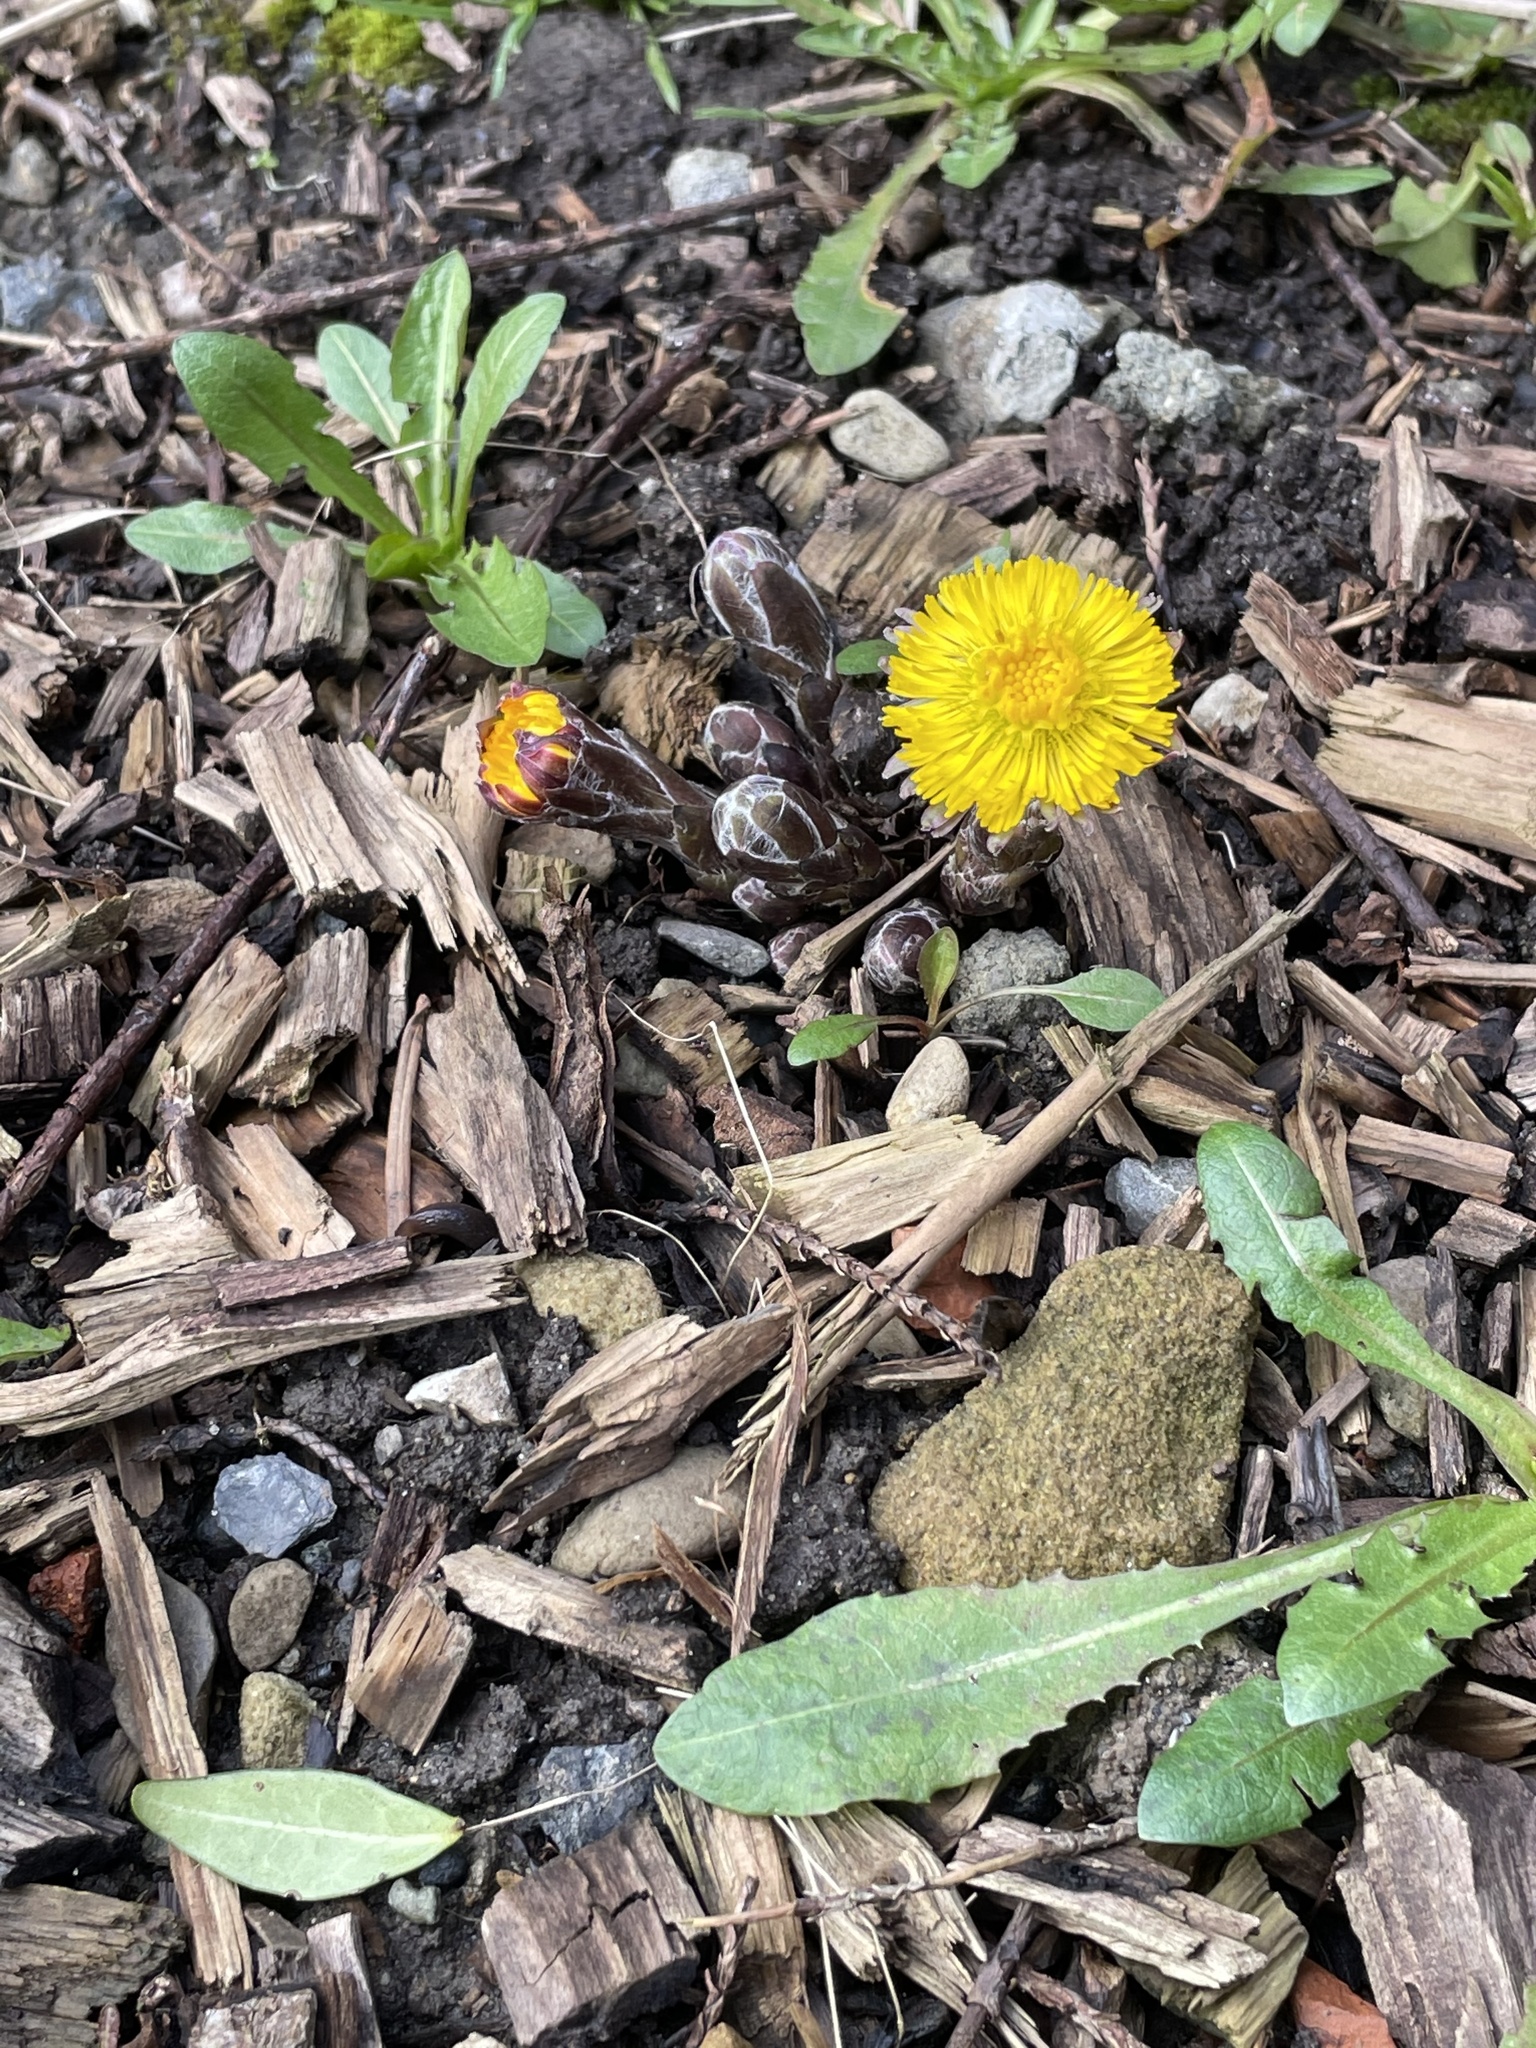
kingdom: Plantae
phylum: Tracheophyta
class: Magnoliopsida
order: Asterales
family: Asteraceae
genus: Tussilago
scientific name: Tussilago farfara
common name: Coltsfoot
